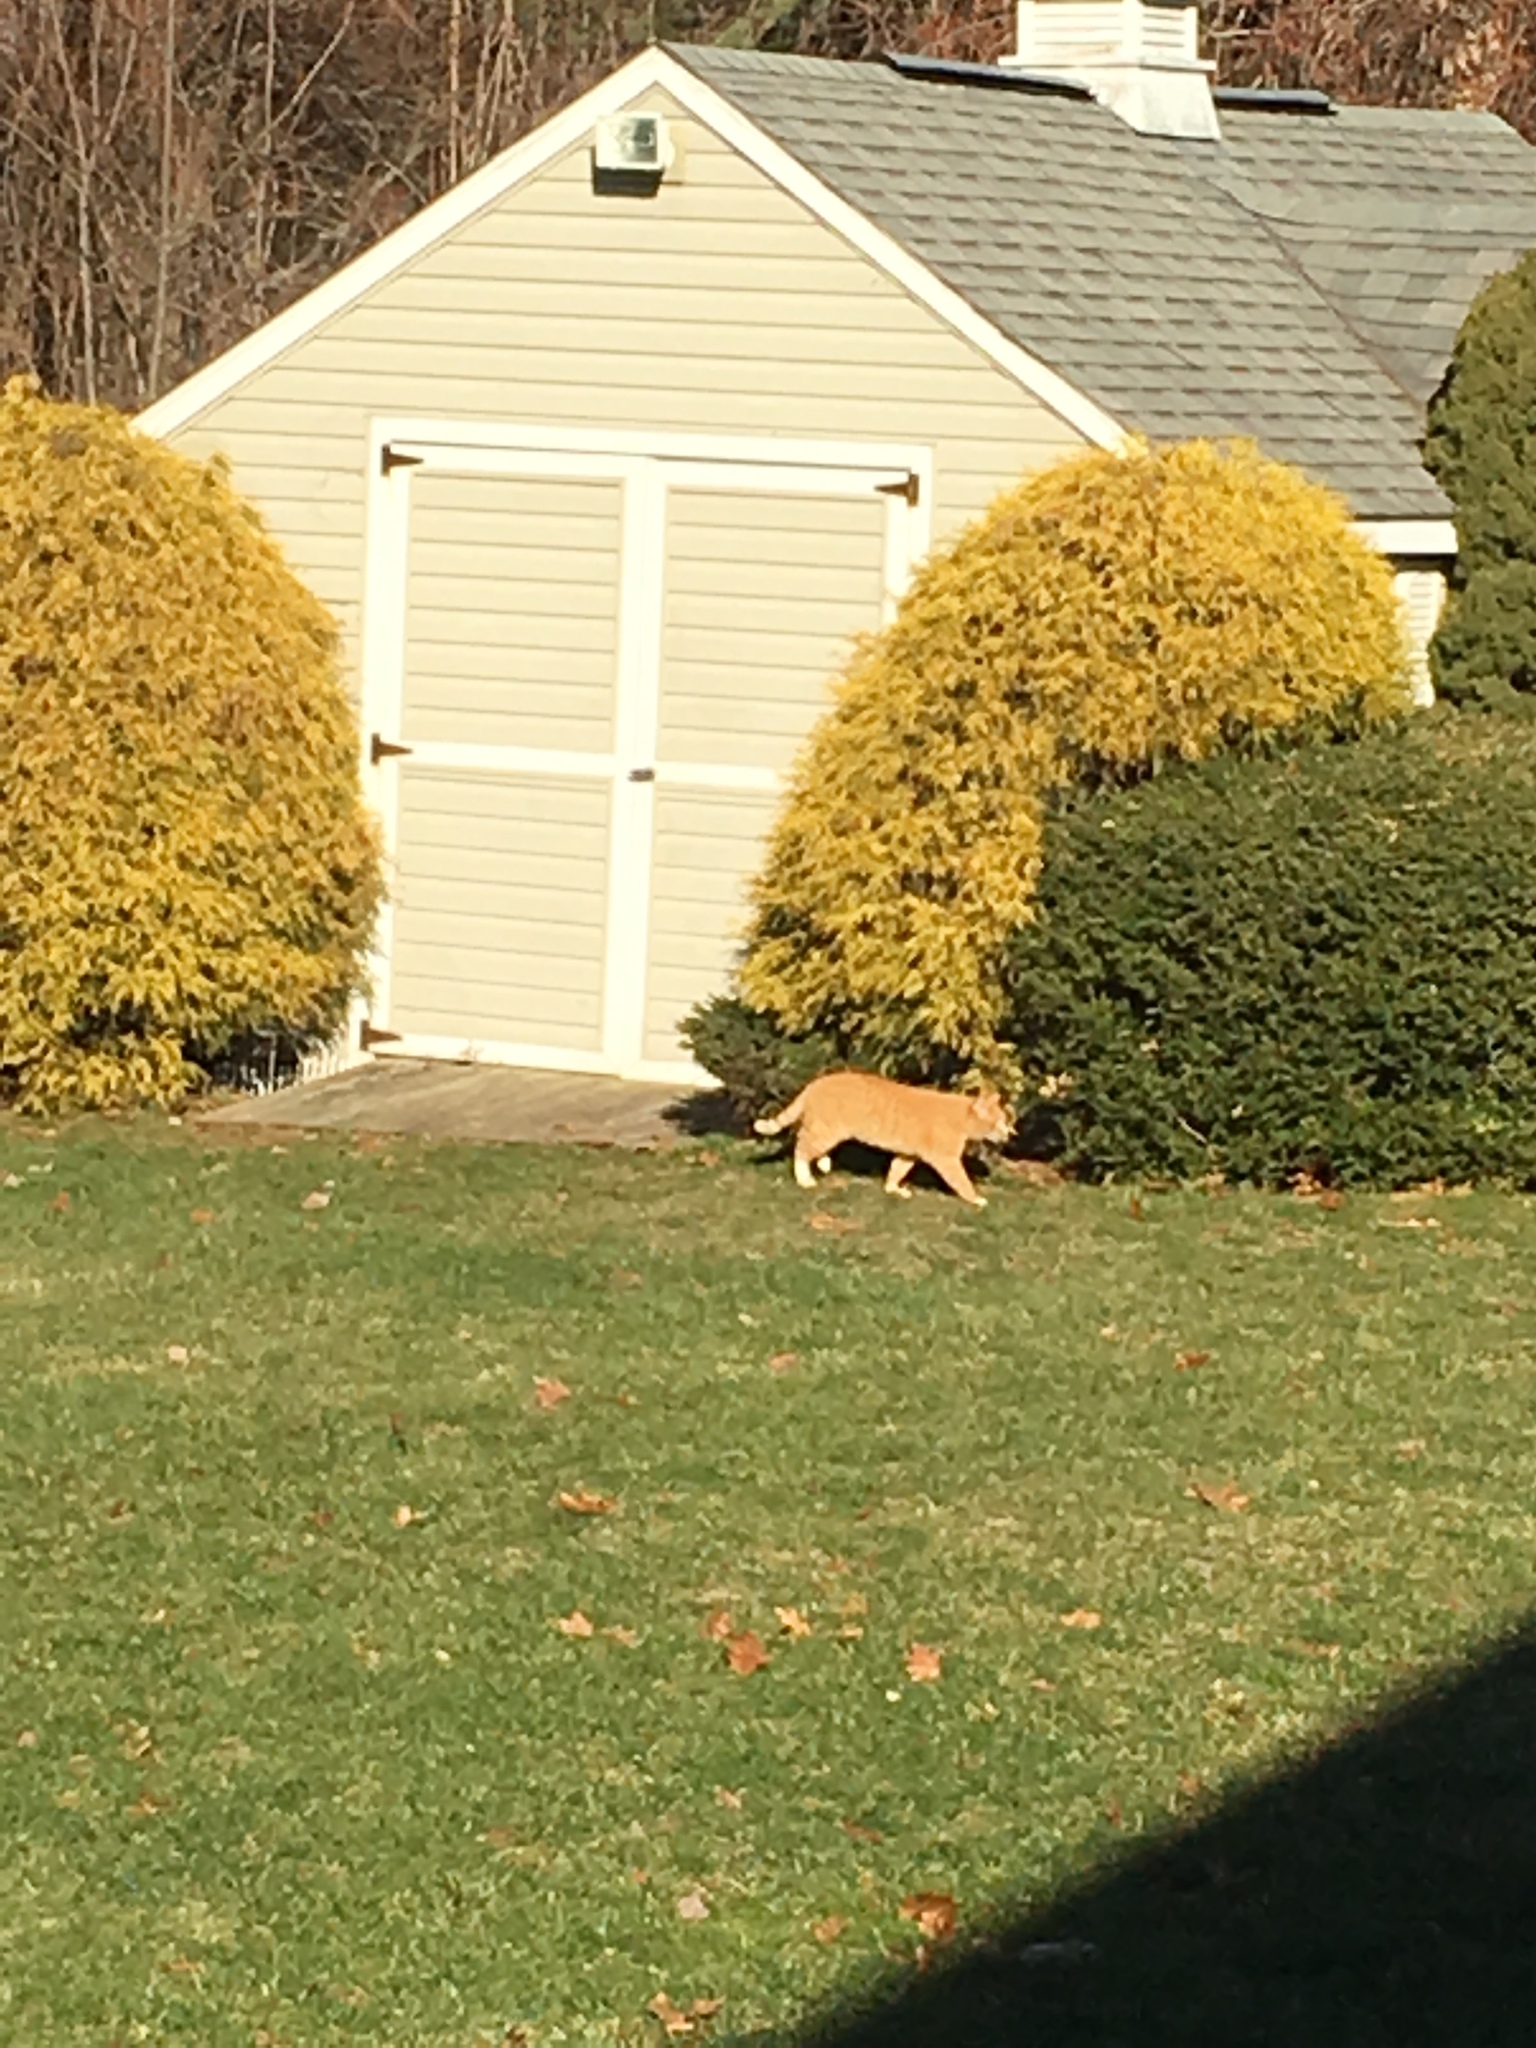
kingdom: Animalia
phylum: Chordata
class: Mammalia
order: Carnivora
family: Felidae
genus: Felis
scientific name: Felis catus
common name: Domestic cat
